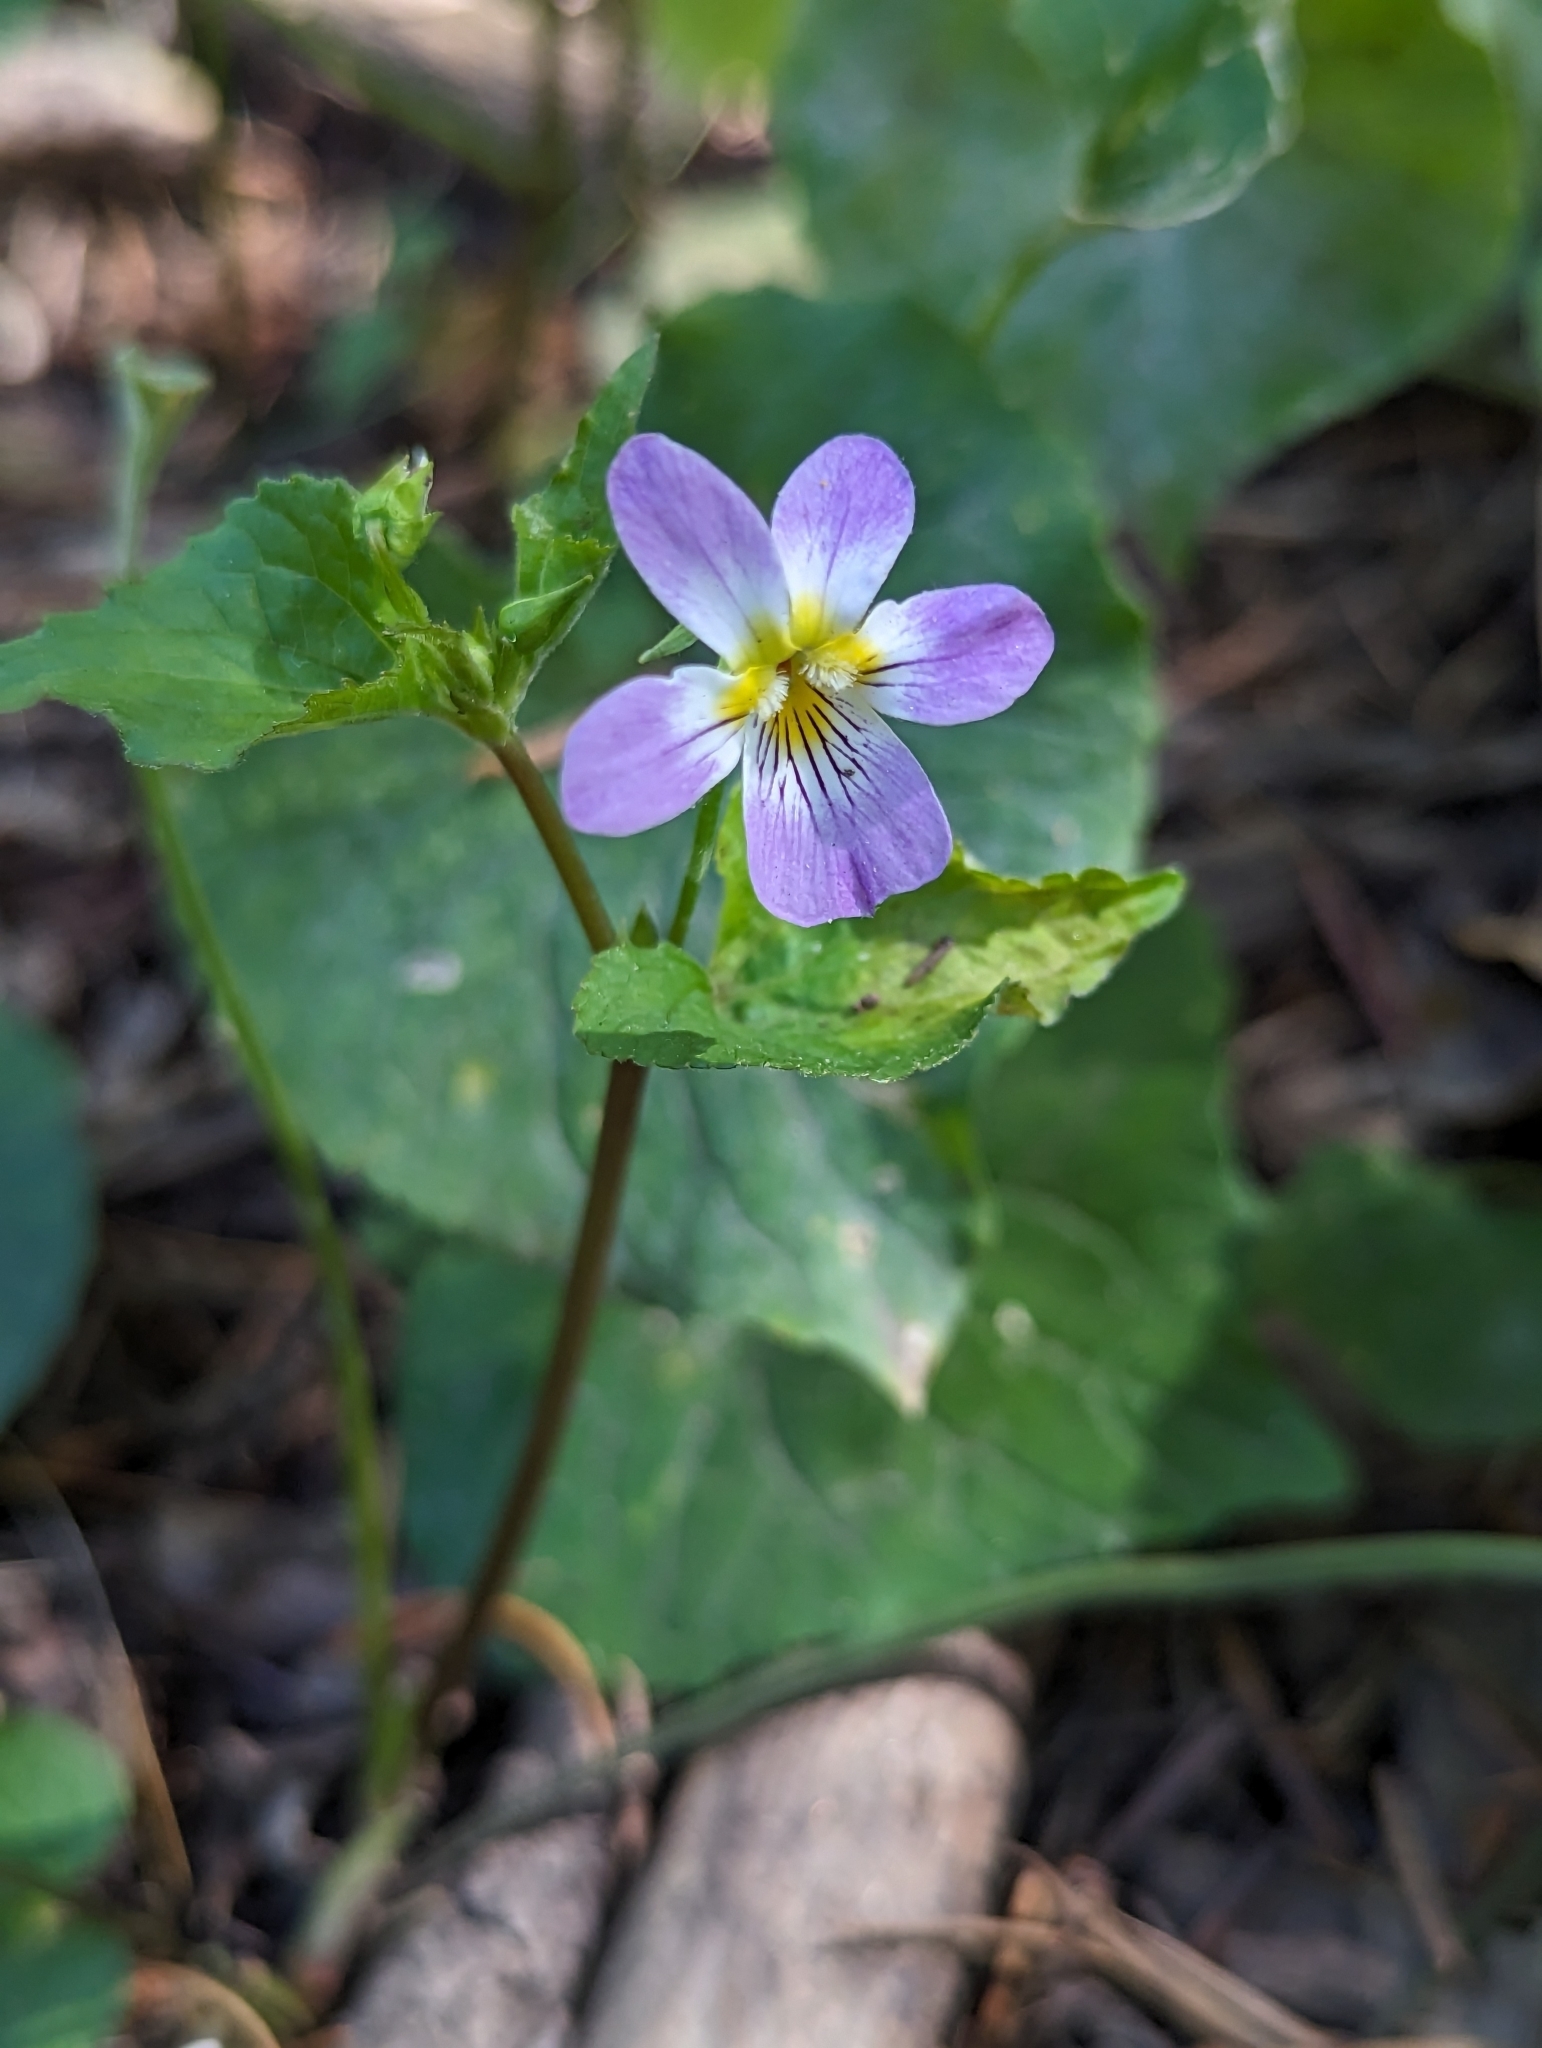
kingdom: Plantae
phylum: Tracheophyta
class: Magnoliopsida
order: Malpighiales
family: Violaceae
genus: Viola
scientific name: Viola canadensis
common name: Canada violet
